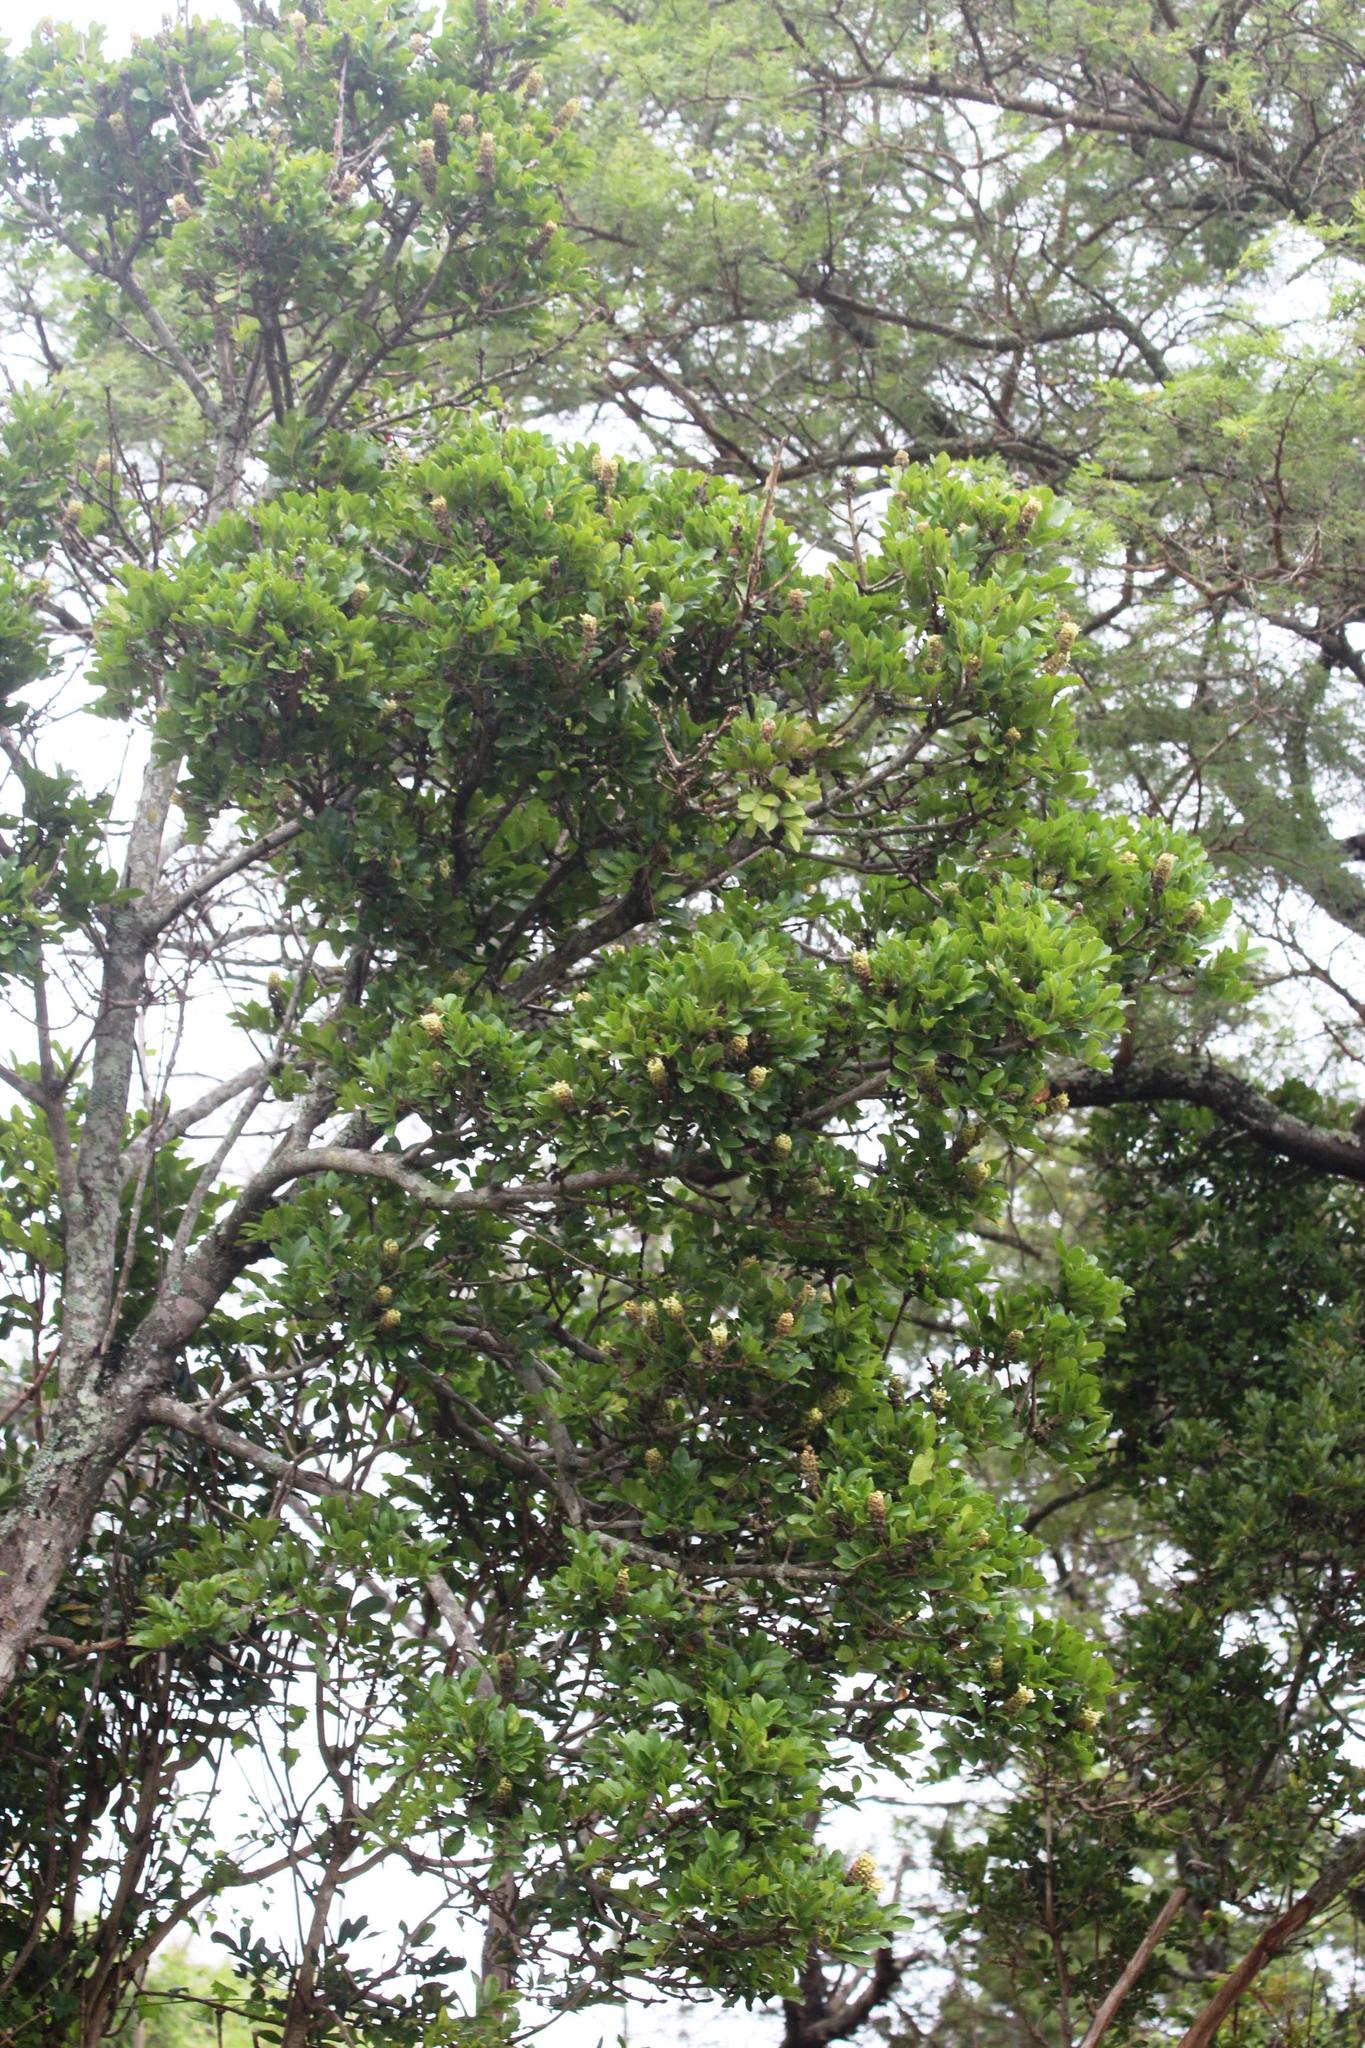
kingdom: Plantae
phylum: Tracheophyta
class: Magnoliopsida
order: Geraniales
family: Melianthaceae
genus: Bersama
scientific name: Bersama swinnyi
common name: Coastal white ash
